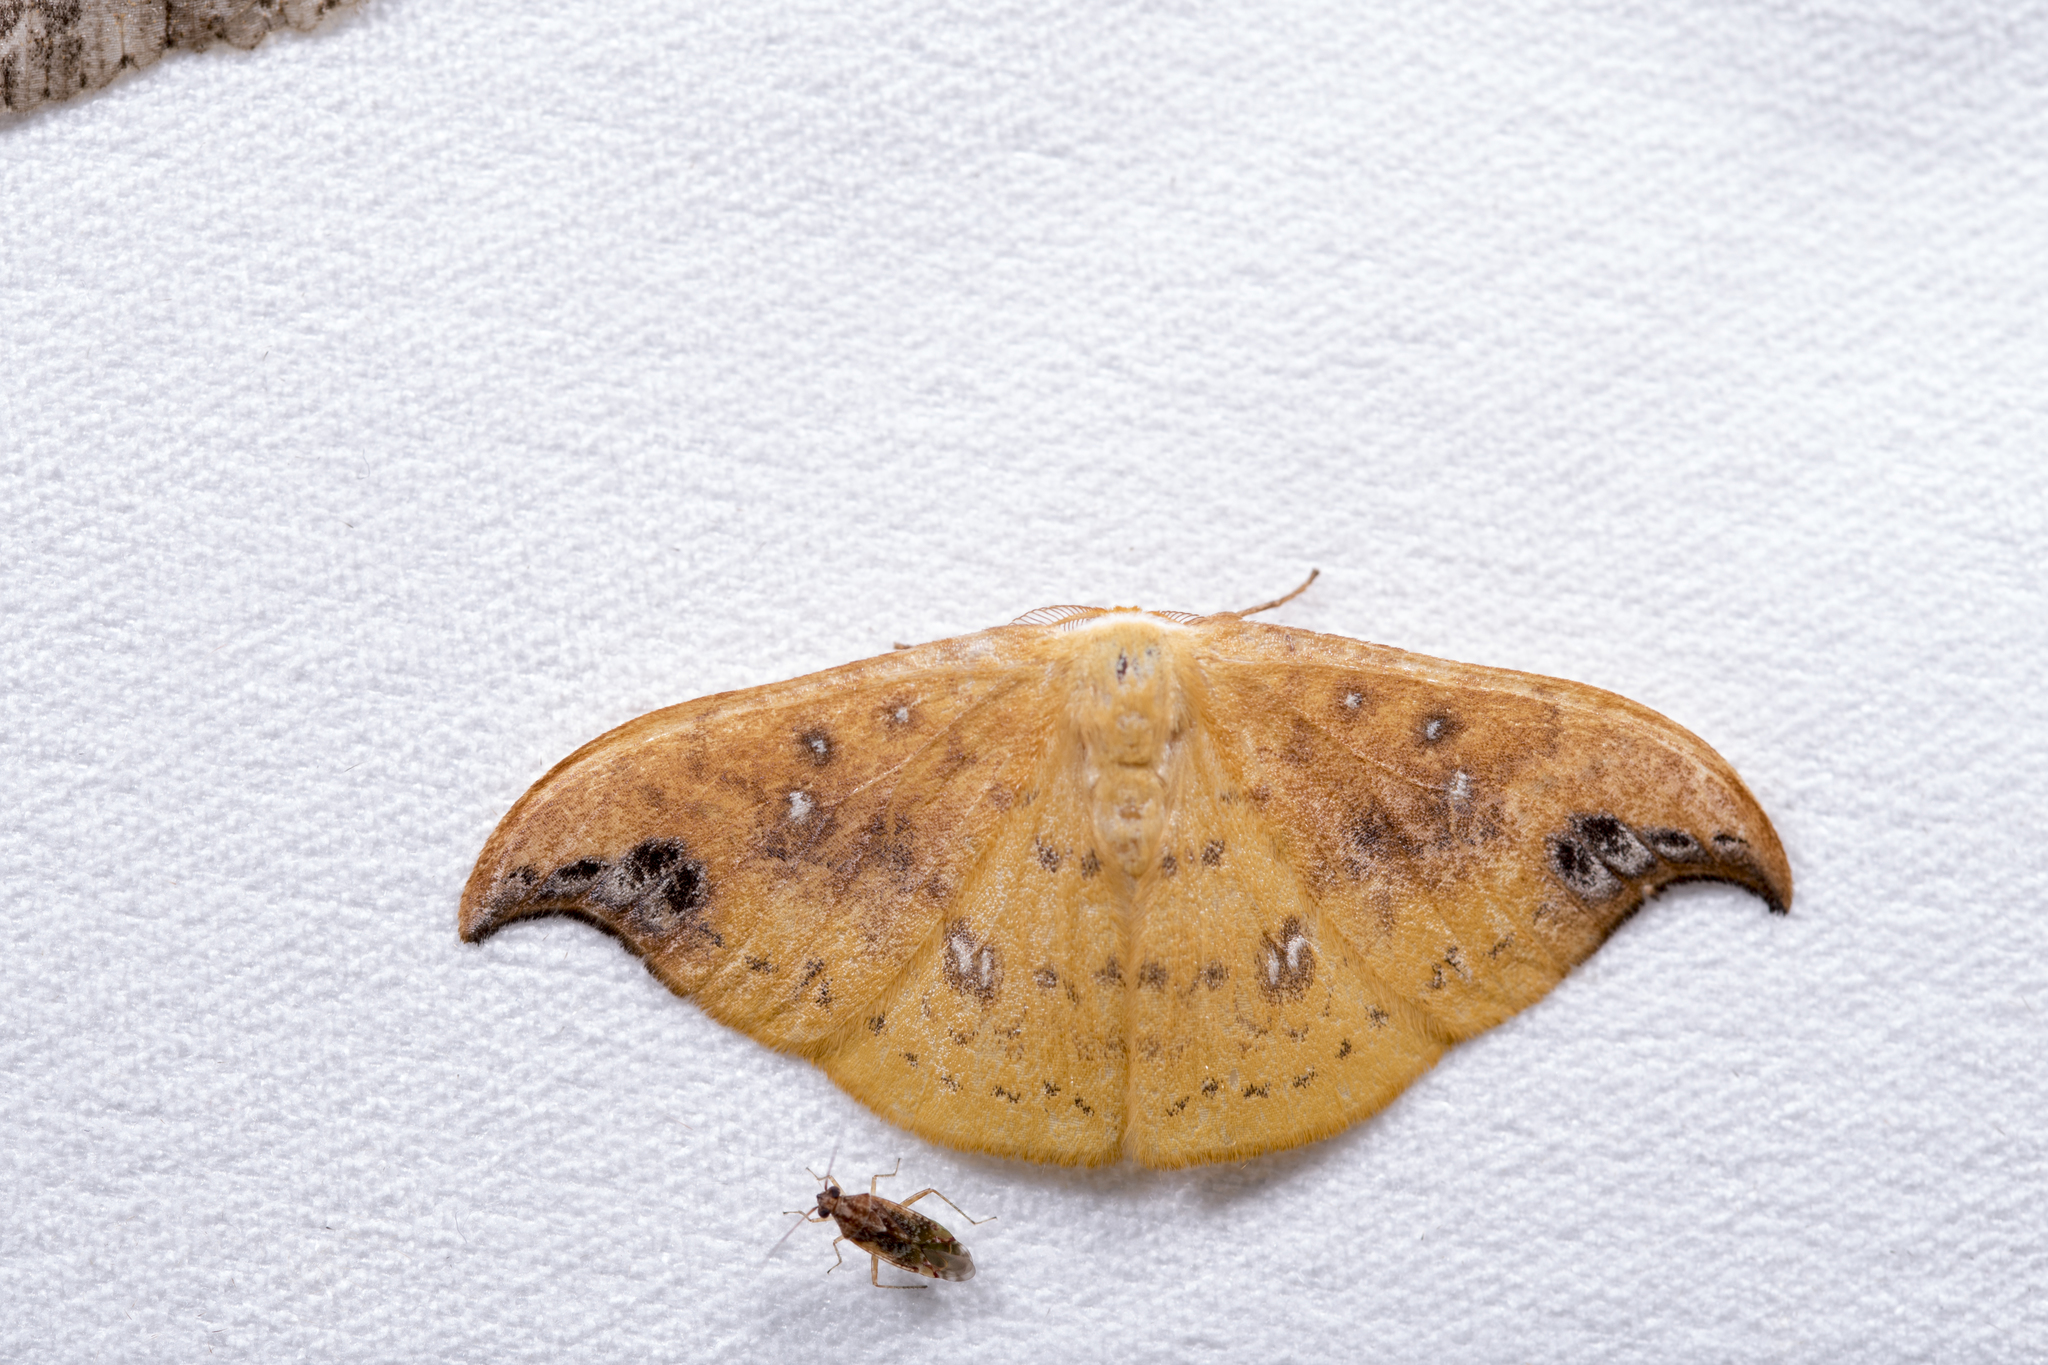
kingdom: Animalia
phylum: Arthropoda
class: Insecta
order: Lepidoptera
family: Drepanidae
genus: Tridrepana
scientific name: Tridrepana unispina
